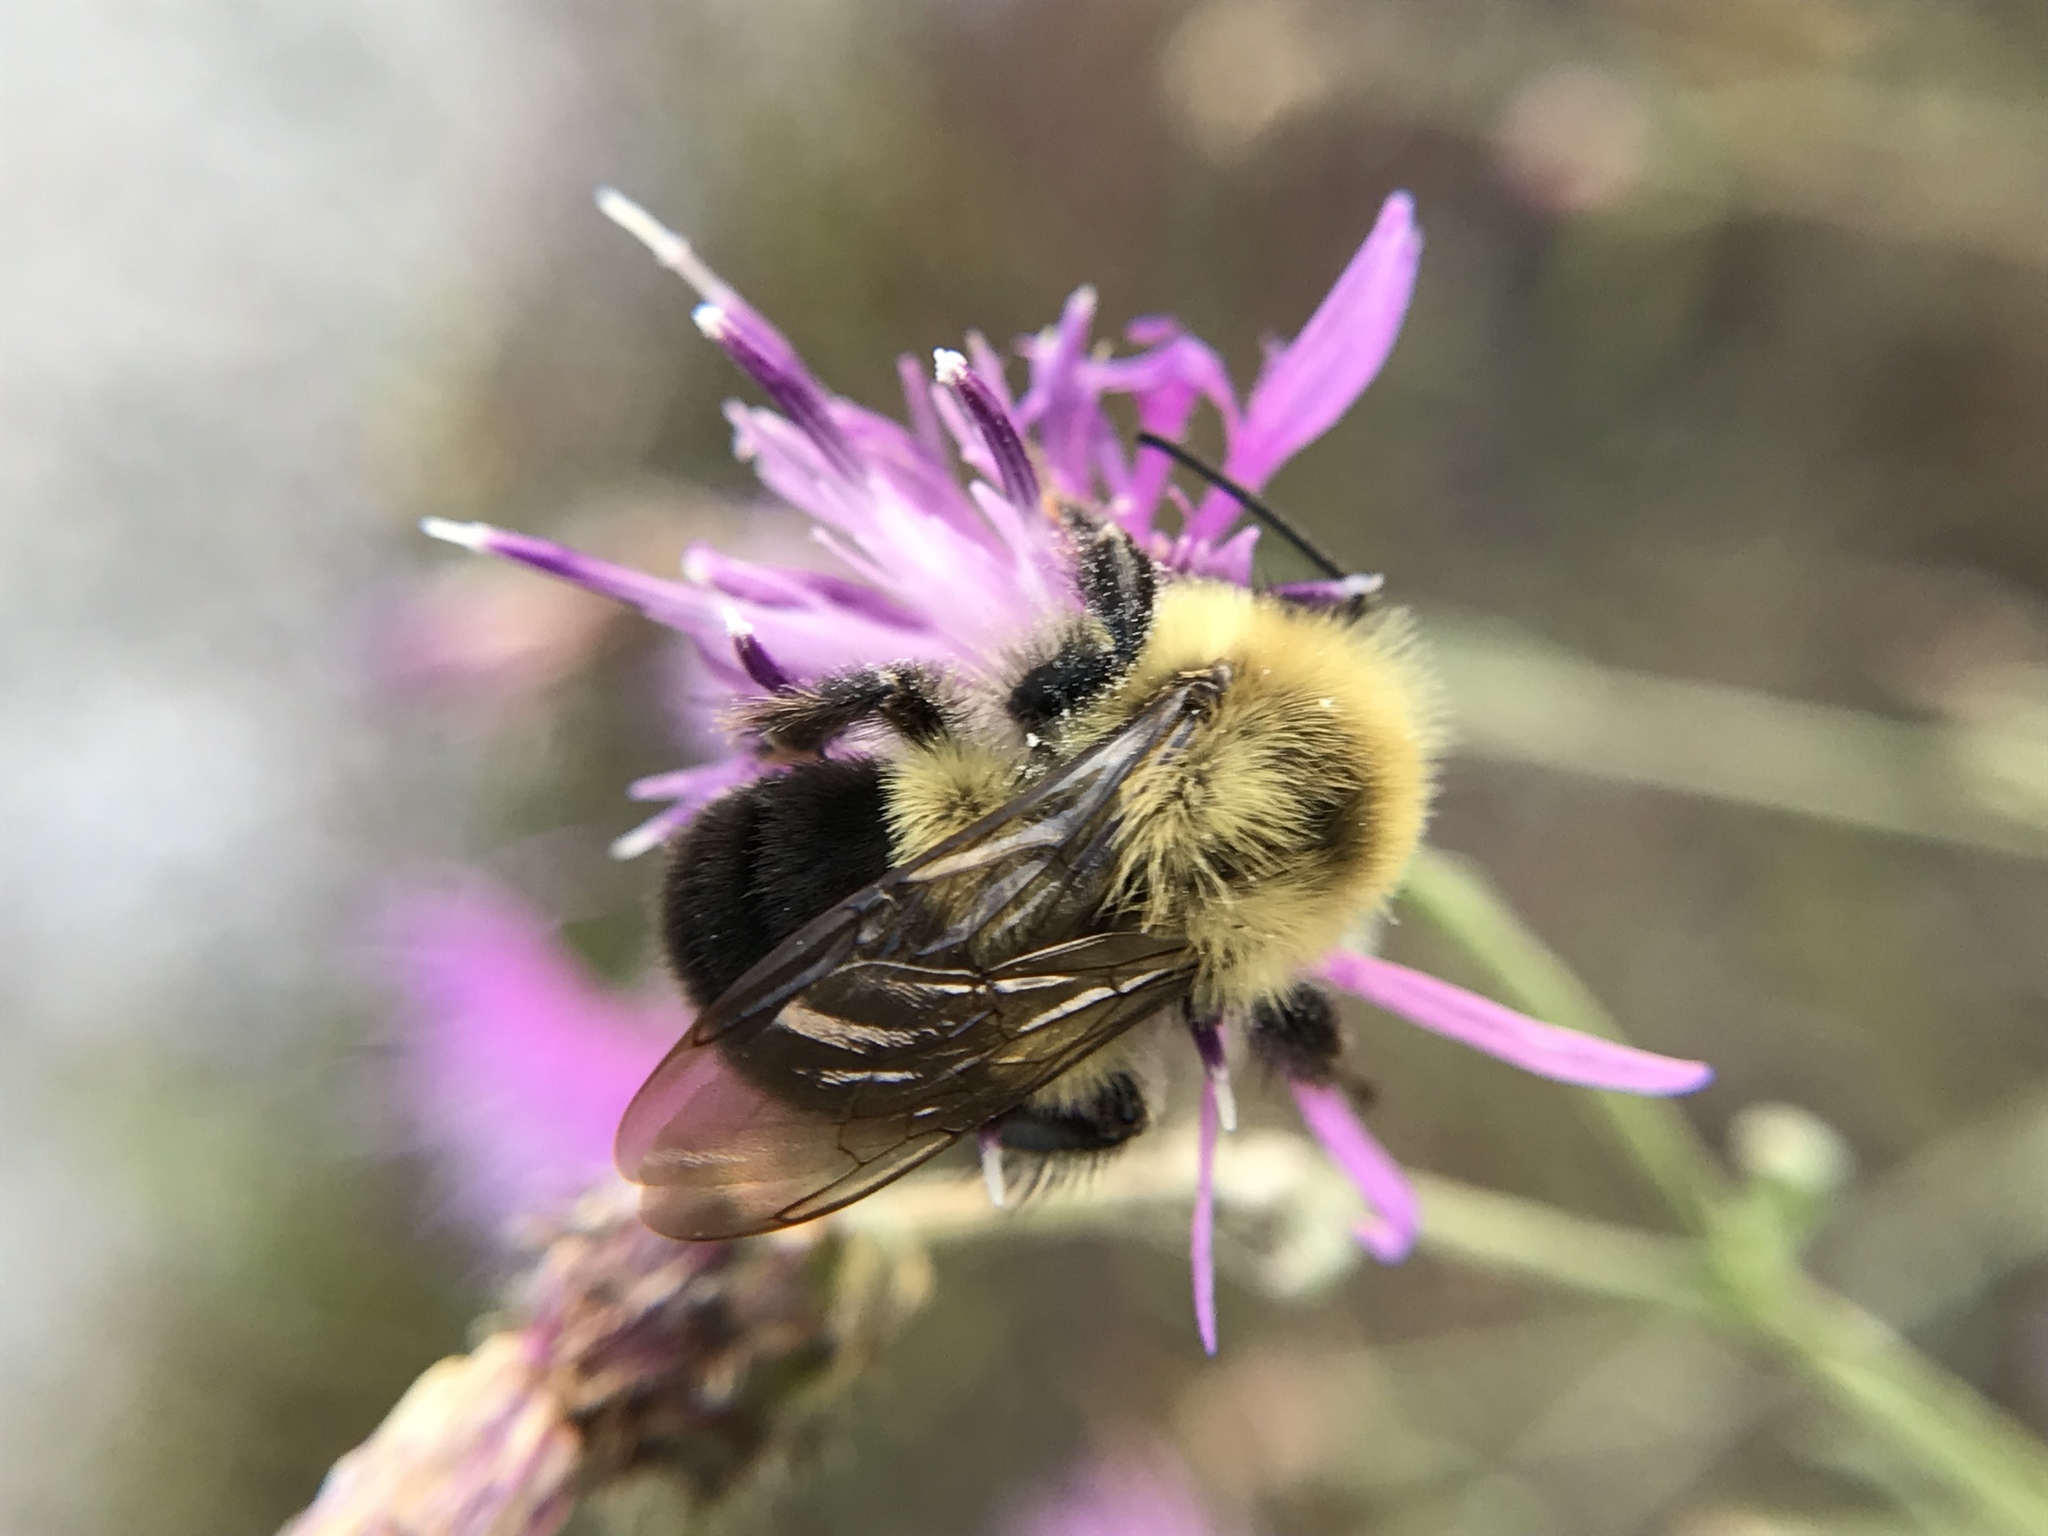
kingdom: Animalia
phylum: Arthropoda
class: Insecta
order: Hymenoptera
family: Apidae
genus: Bombus
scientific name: Bombus impatiens
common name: Common eastern bumble bee
